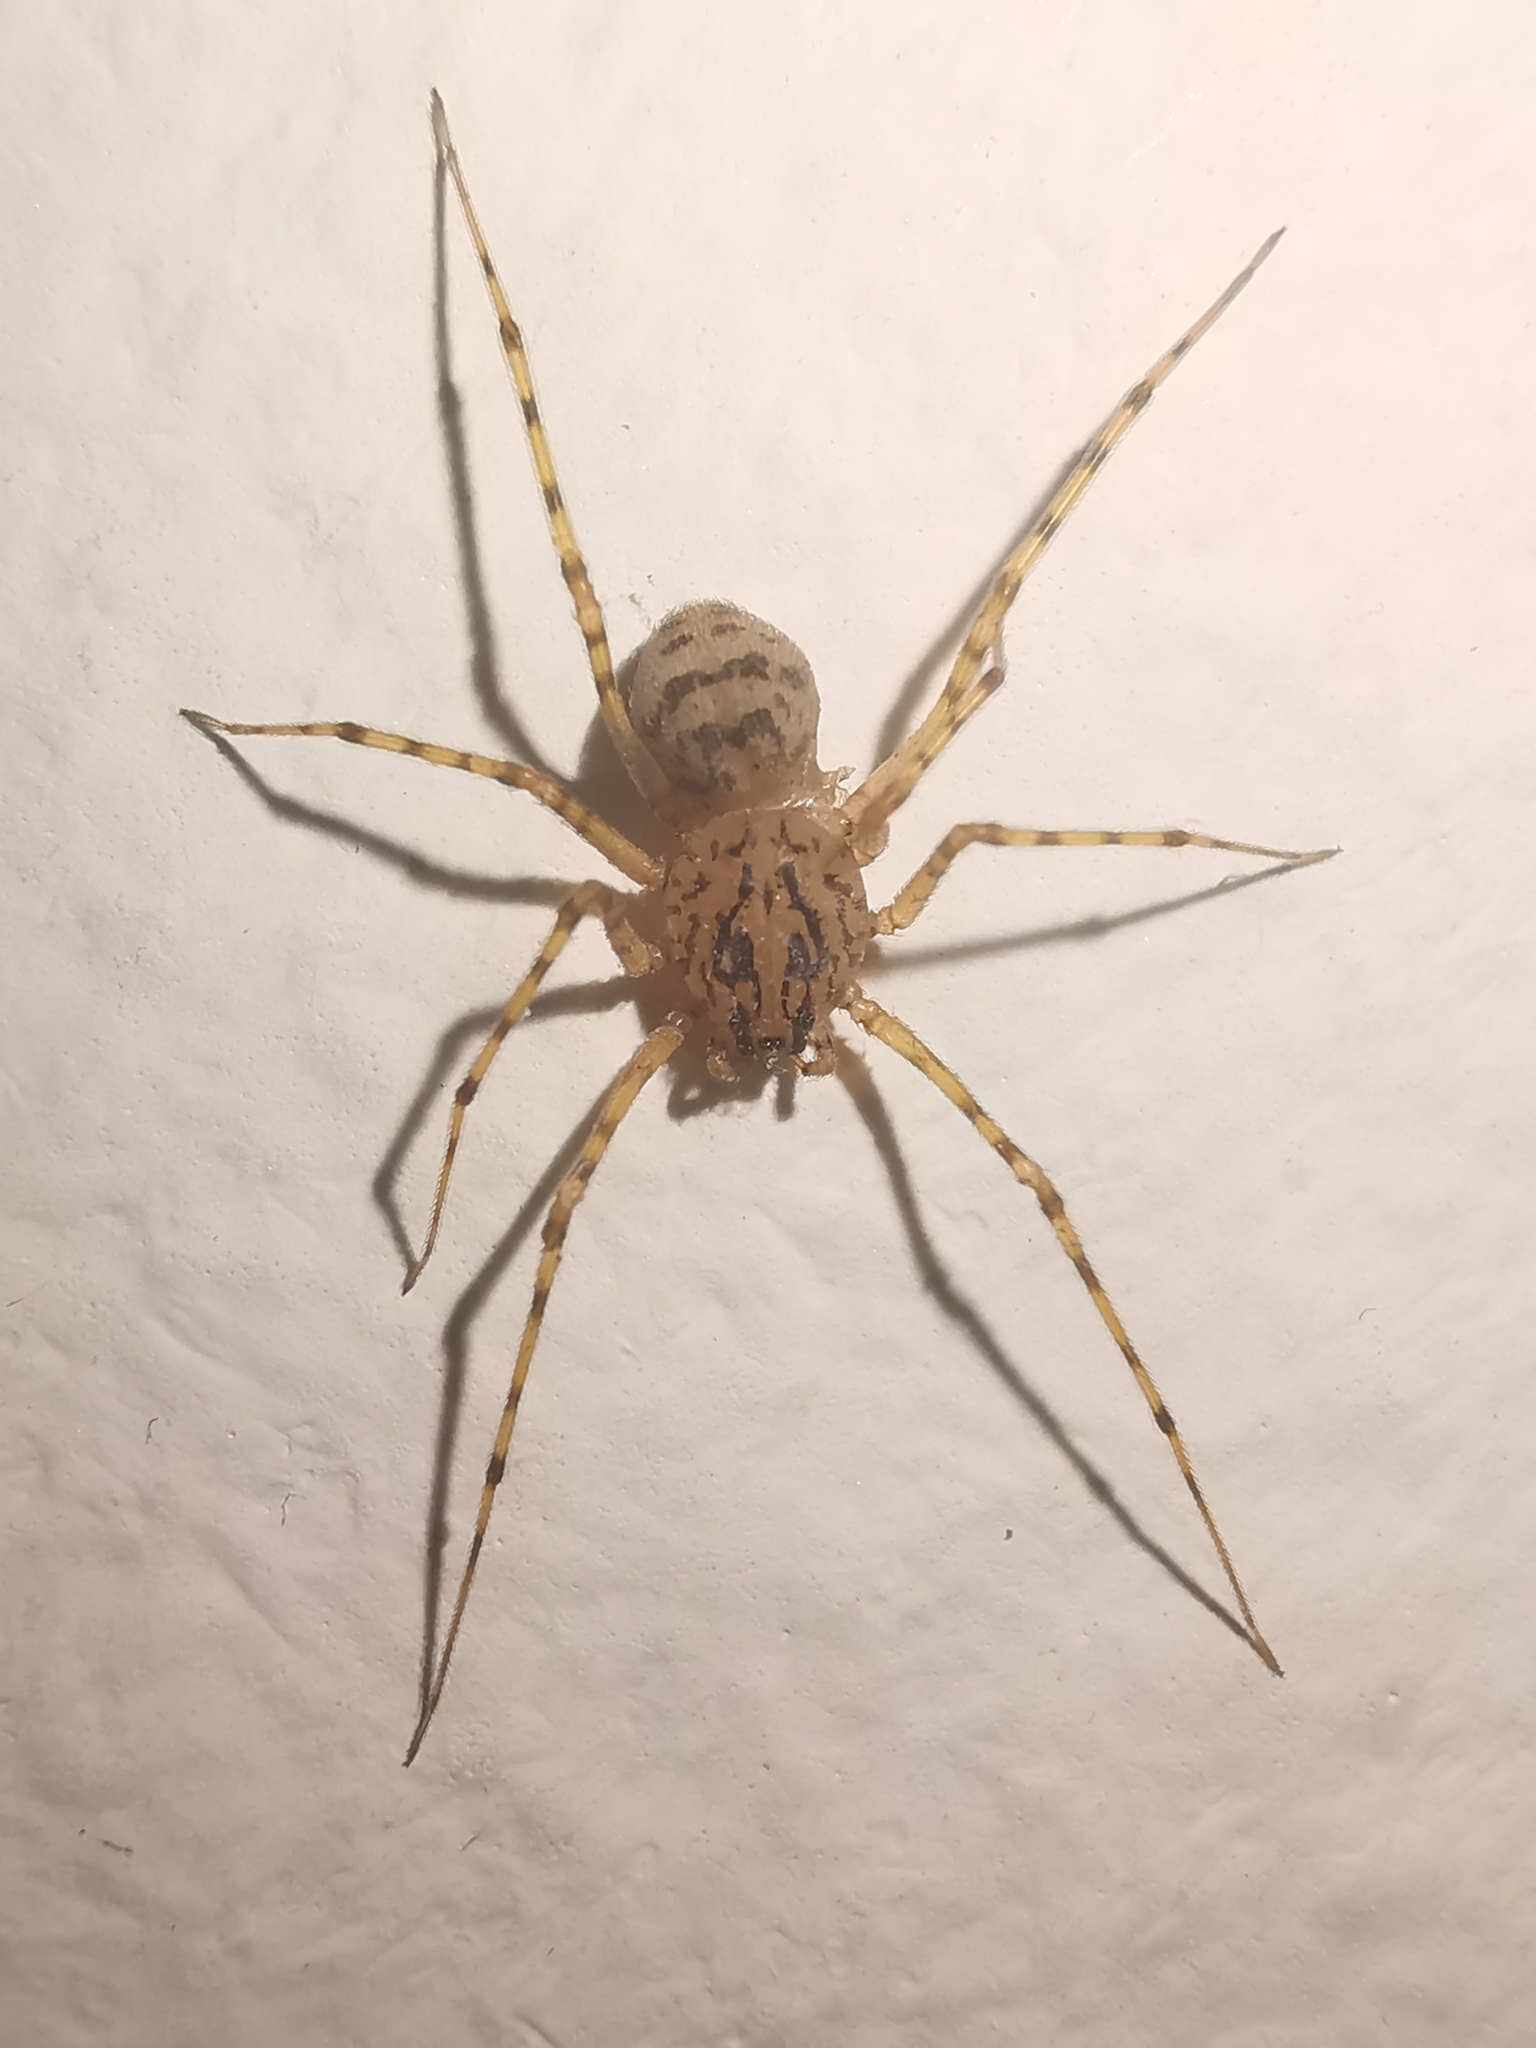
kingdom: Animalia
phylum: Arthropoda
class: Arachnida
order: Araneae
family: Scytodidae
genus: Scytodes
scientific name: Scytodes thoracica
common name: Spitting spider
